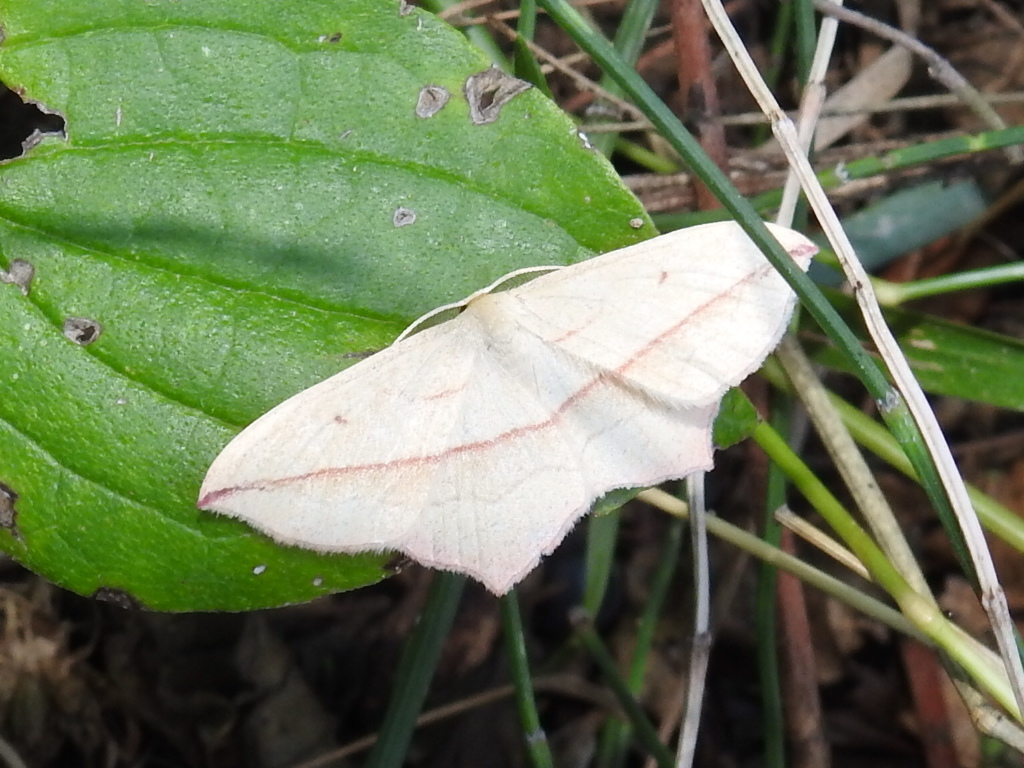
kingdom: Animalia
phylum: Arthropoda
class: Insecta
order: Lepidoptera
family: Geometridae
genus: Timandra
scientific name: Timandra comae
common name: Blood-vein
